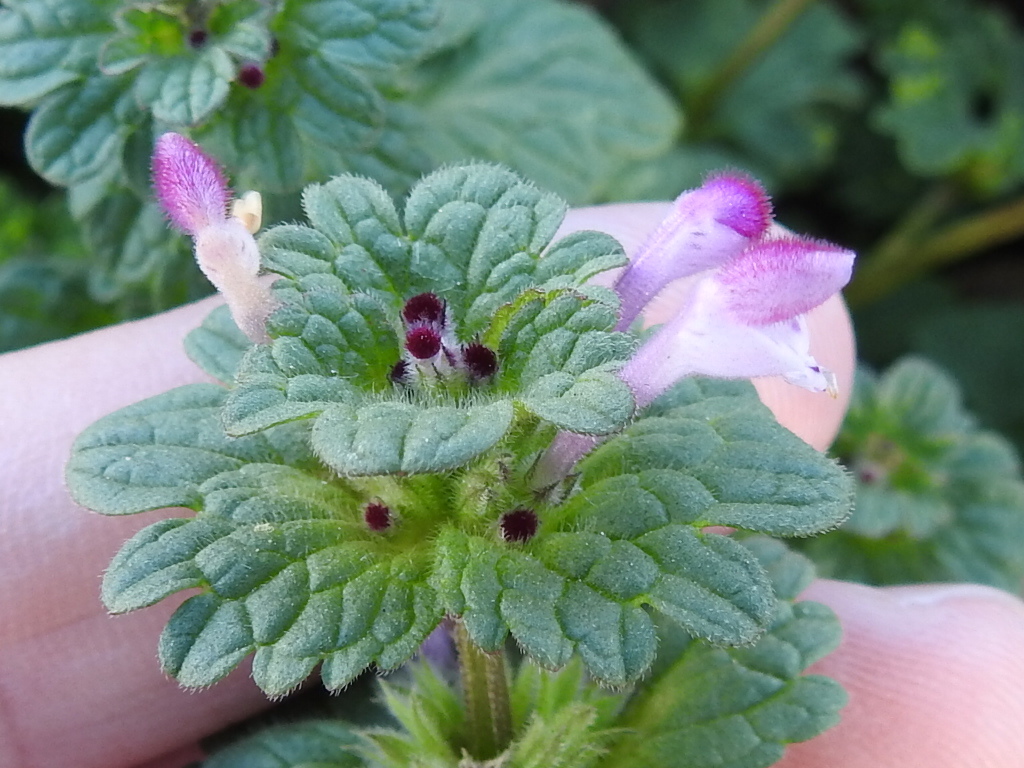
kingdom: Plantae
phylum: Tracheophyta
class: Magnoliopsida
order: Lamiales
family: Lamiaceae
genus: Lamium
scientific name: Lamium amplexicaule
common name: Henbit dead-nettle
